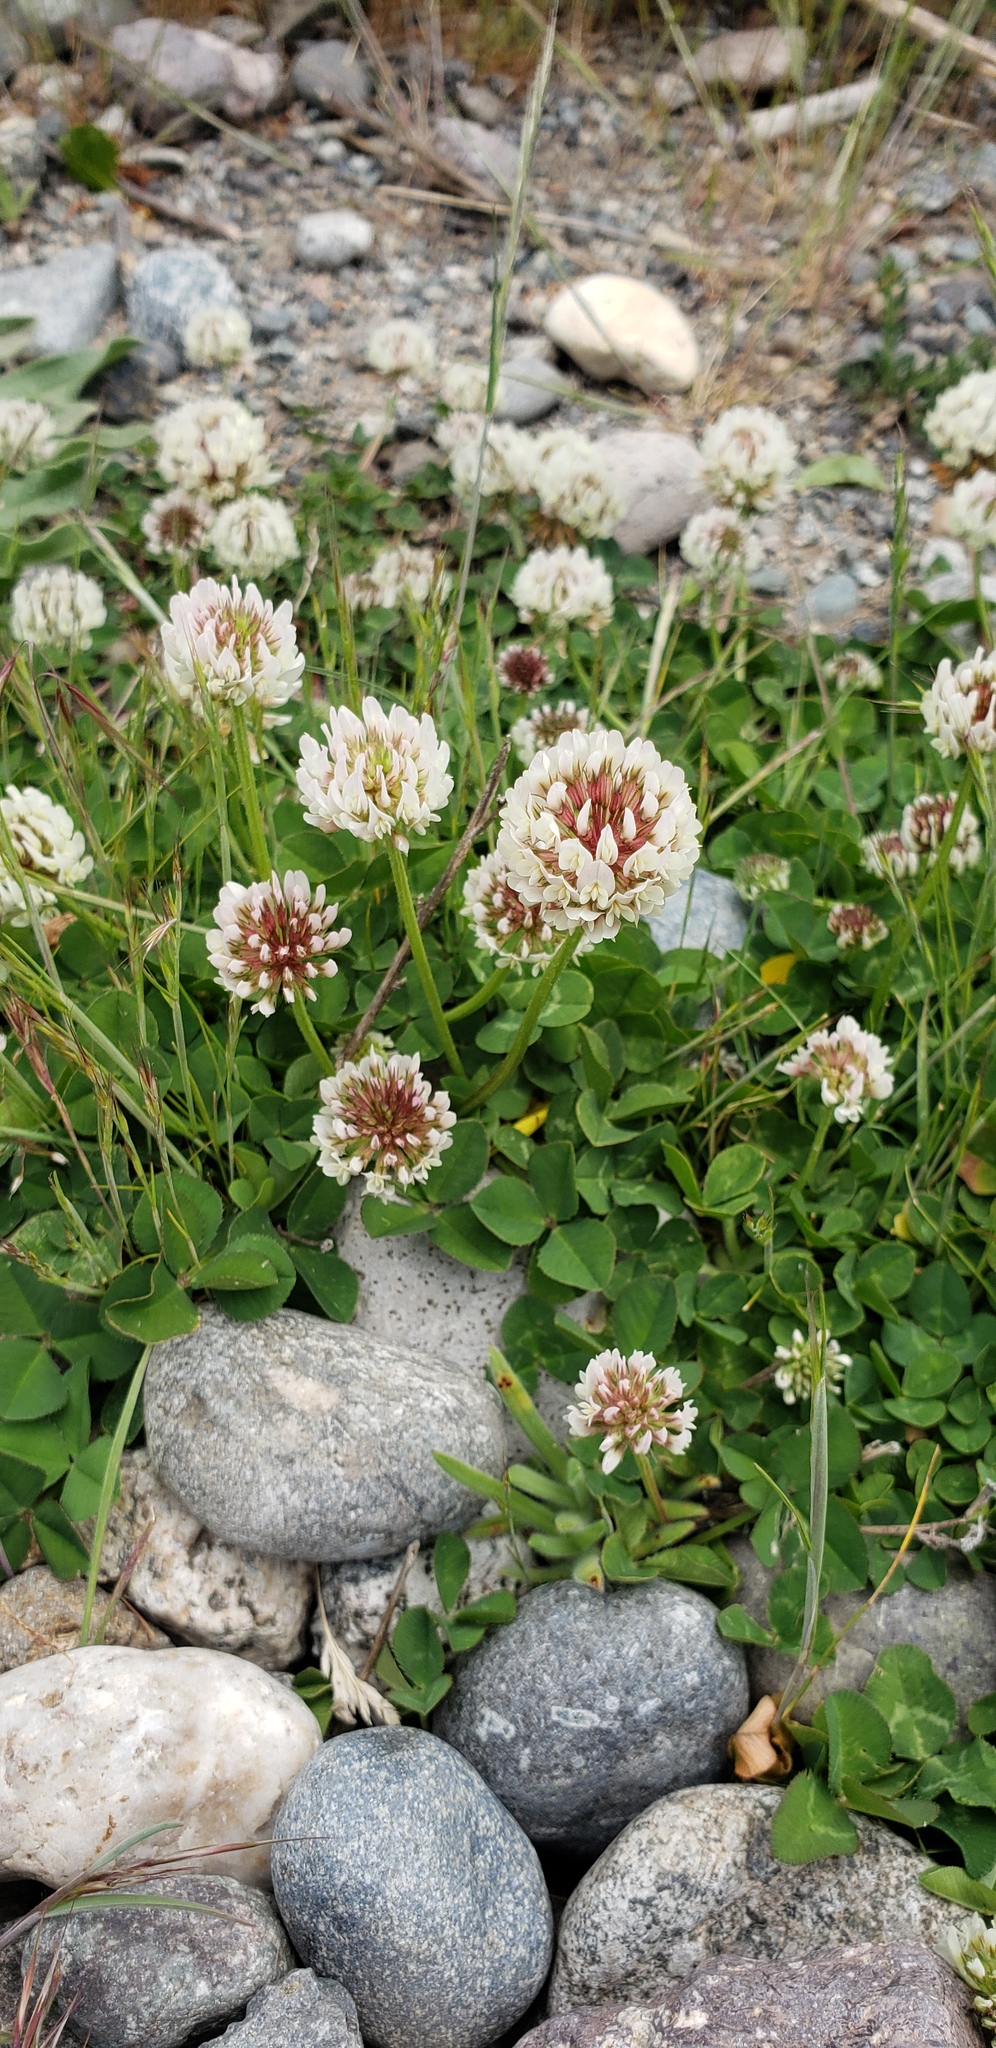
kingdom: Plantae
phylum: Tracheophyta
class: Magnoliopsida
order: Fabales
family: Fabaceae
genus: Trifolium
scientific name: Trifolium repens
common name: White clover
